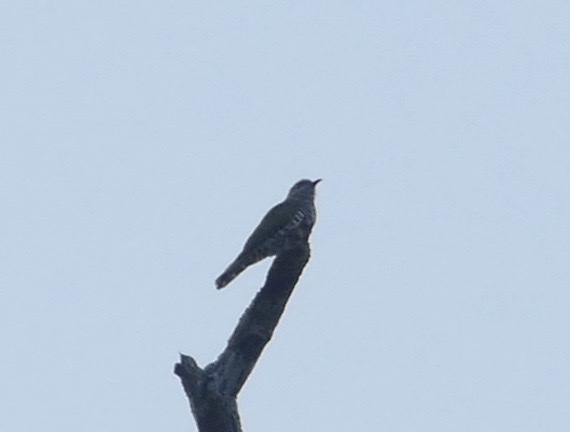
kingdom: Animalia
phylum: Chordata
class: Aves
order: Cuculiformes
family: Cuculidae
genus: Chrysococcyx
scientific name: Chrysococcyx minutillus
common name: Little bronze cuckoo
